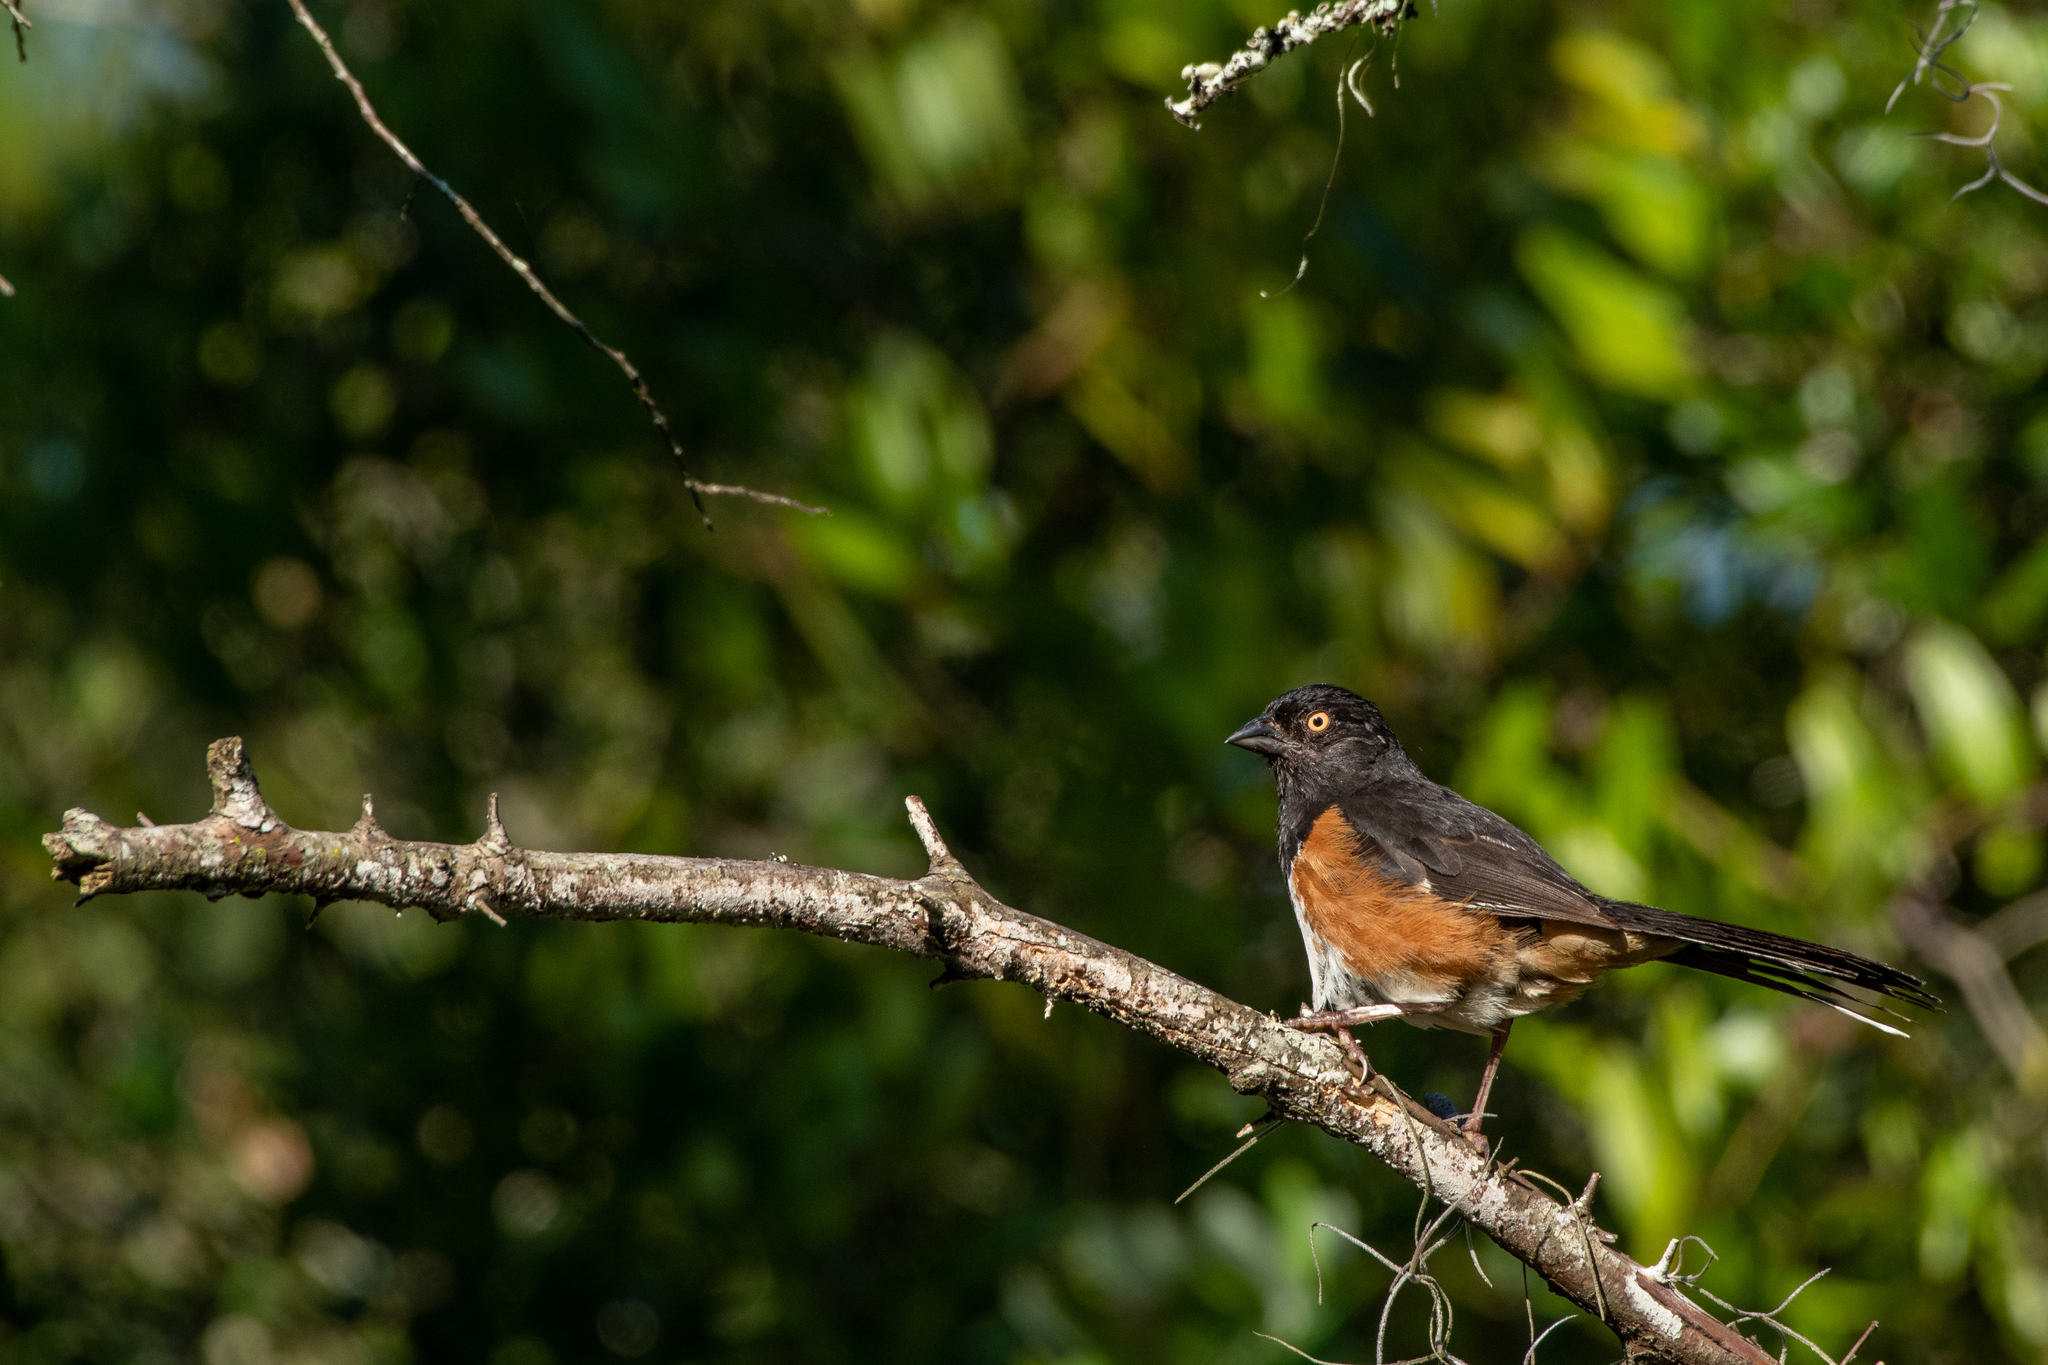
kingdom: Animalia
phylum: Chordata
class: Aves
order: Passeriformes
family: Passerellidae
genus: Pipilo
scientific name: Pipilo erythrophthalmus
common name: Eastern towhee
